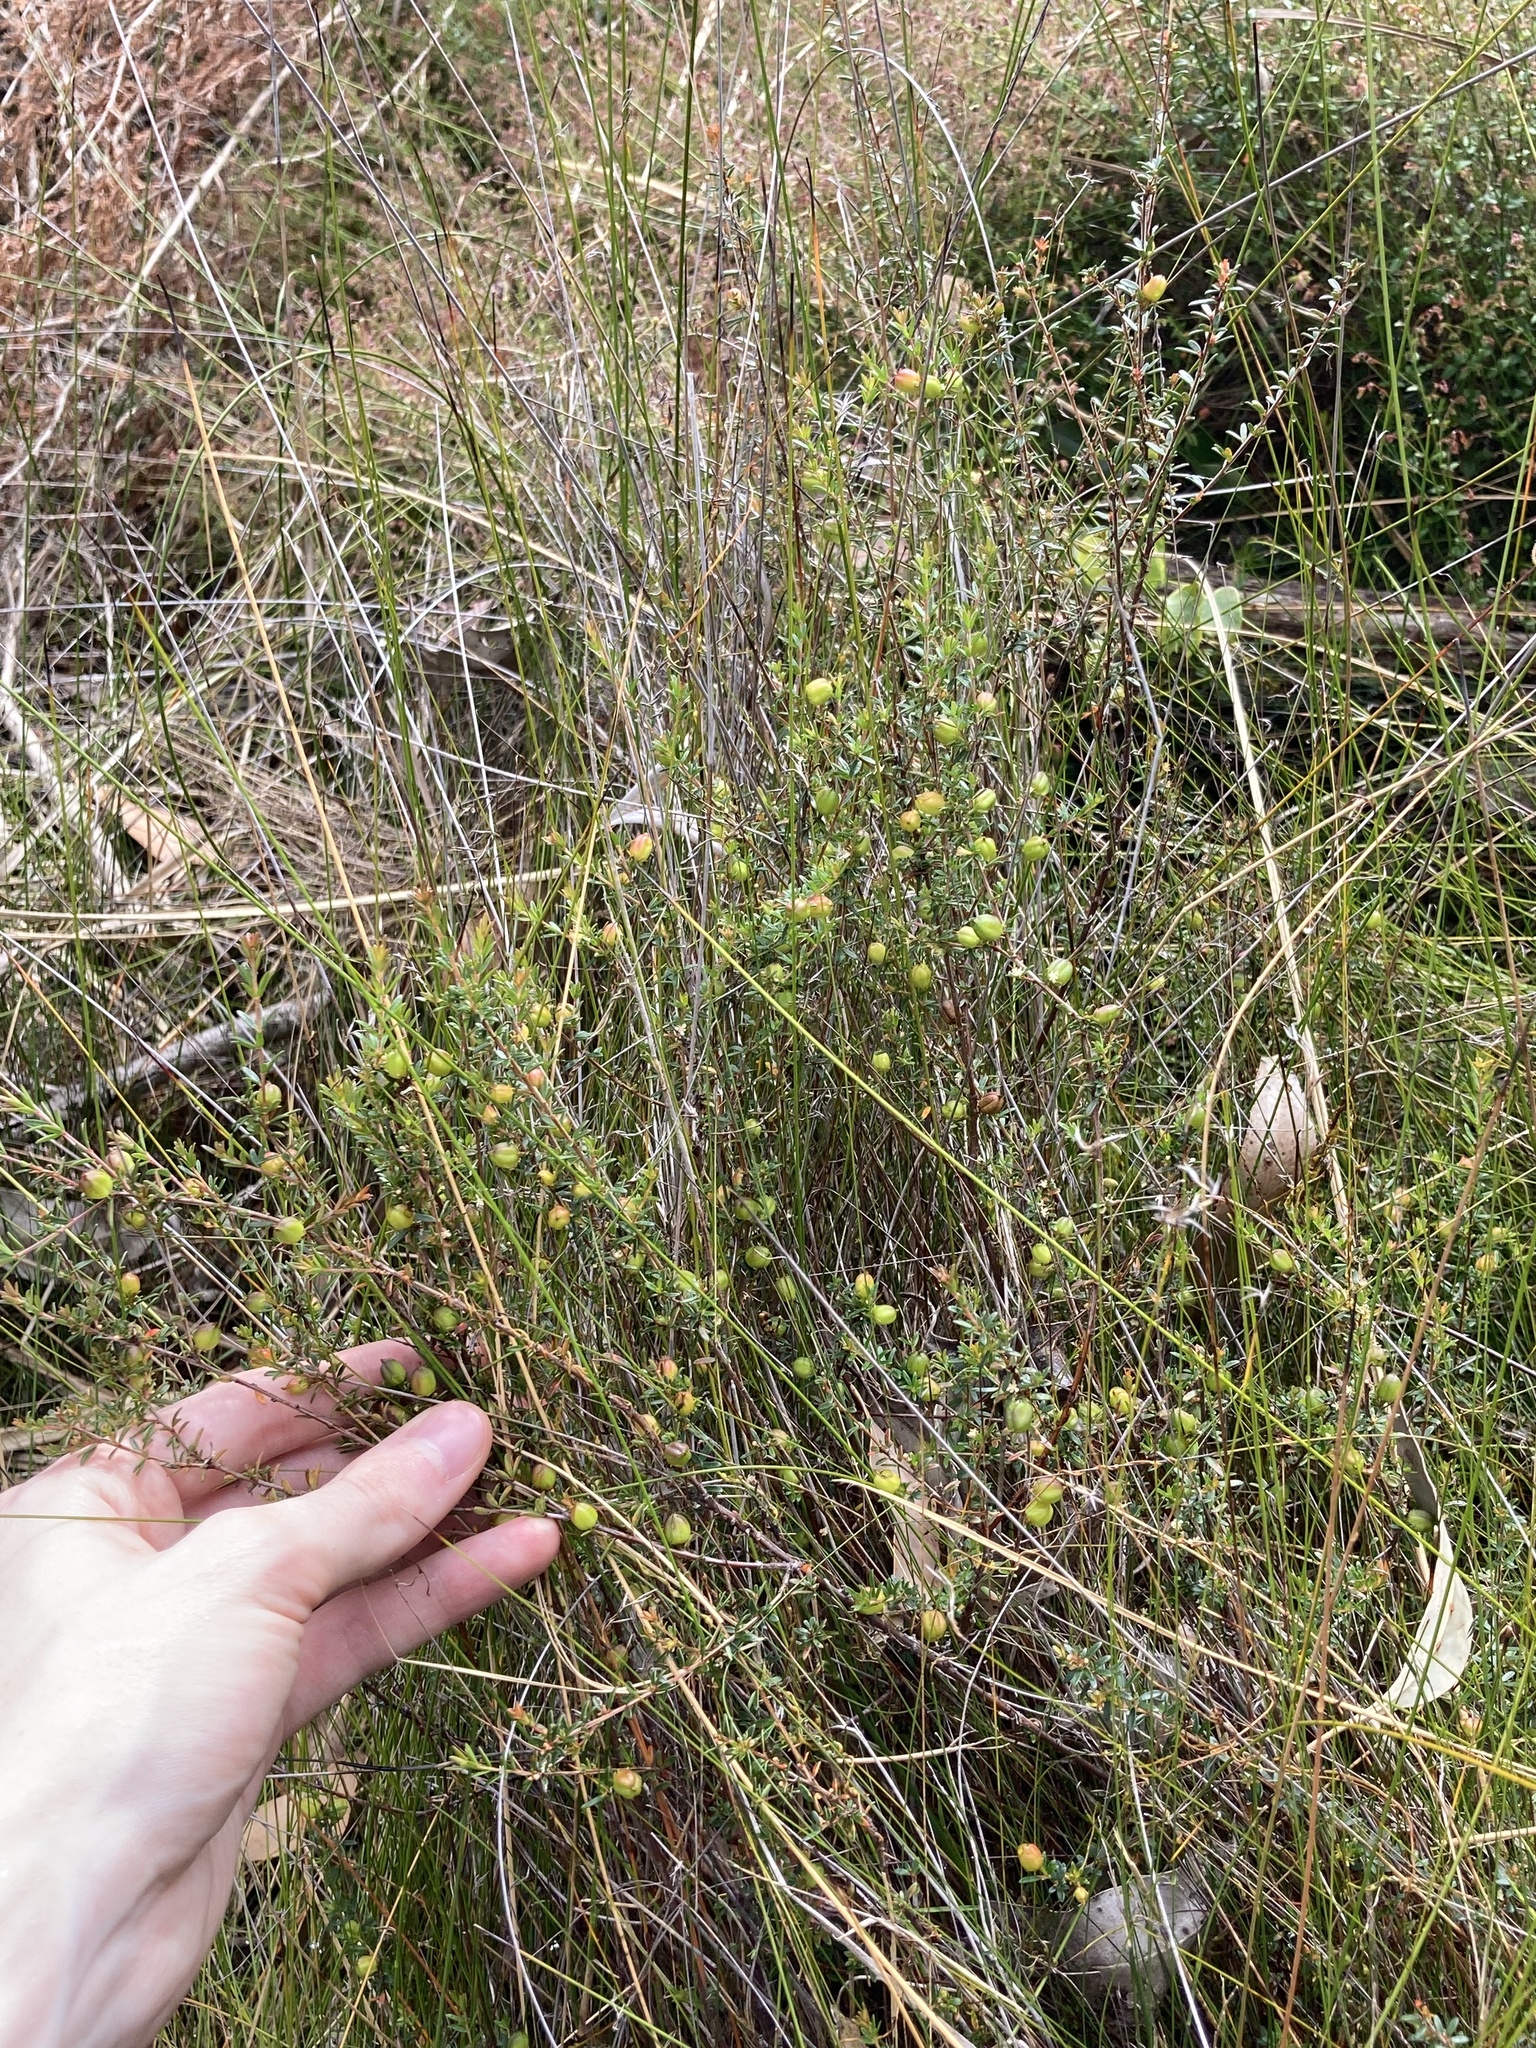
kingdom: Plantae
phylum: Tracheophyta
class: Magnoliopsida
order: Malpighiales
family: Picrodendraceae
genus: Micrantheum
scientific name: Micrantheum ericoides
